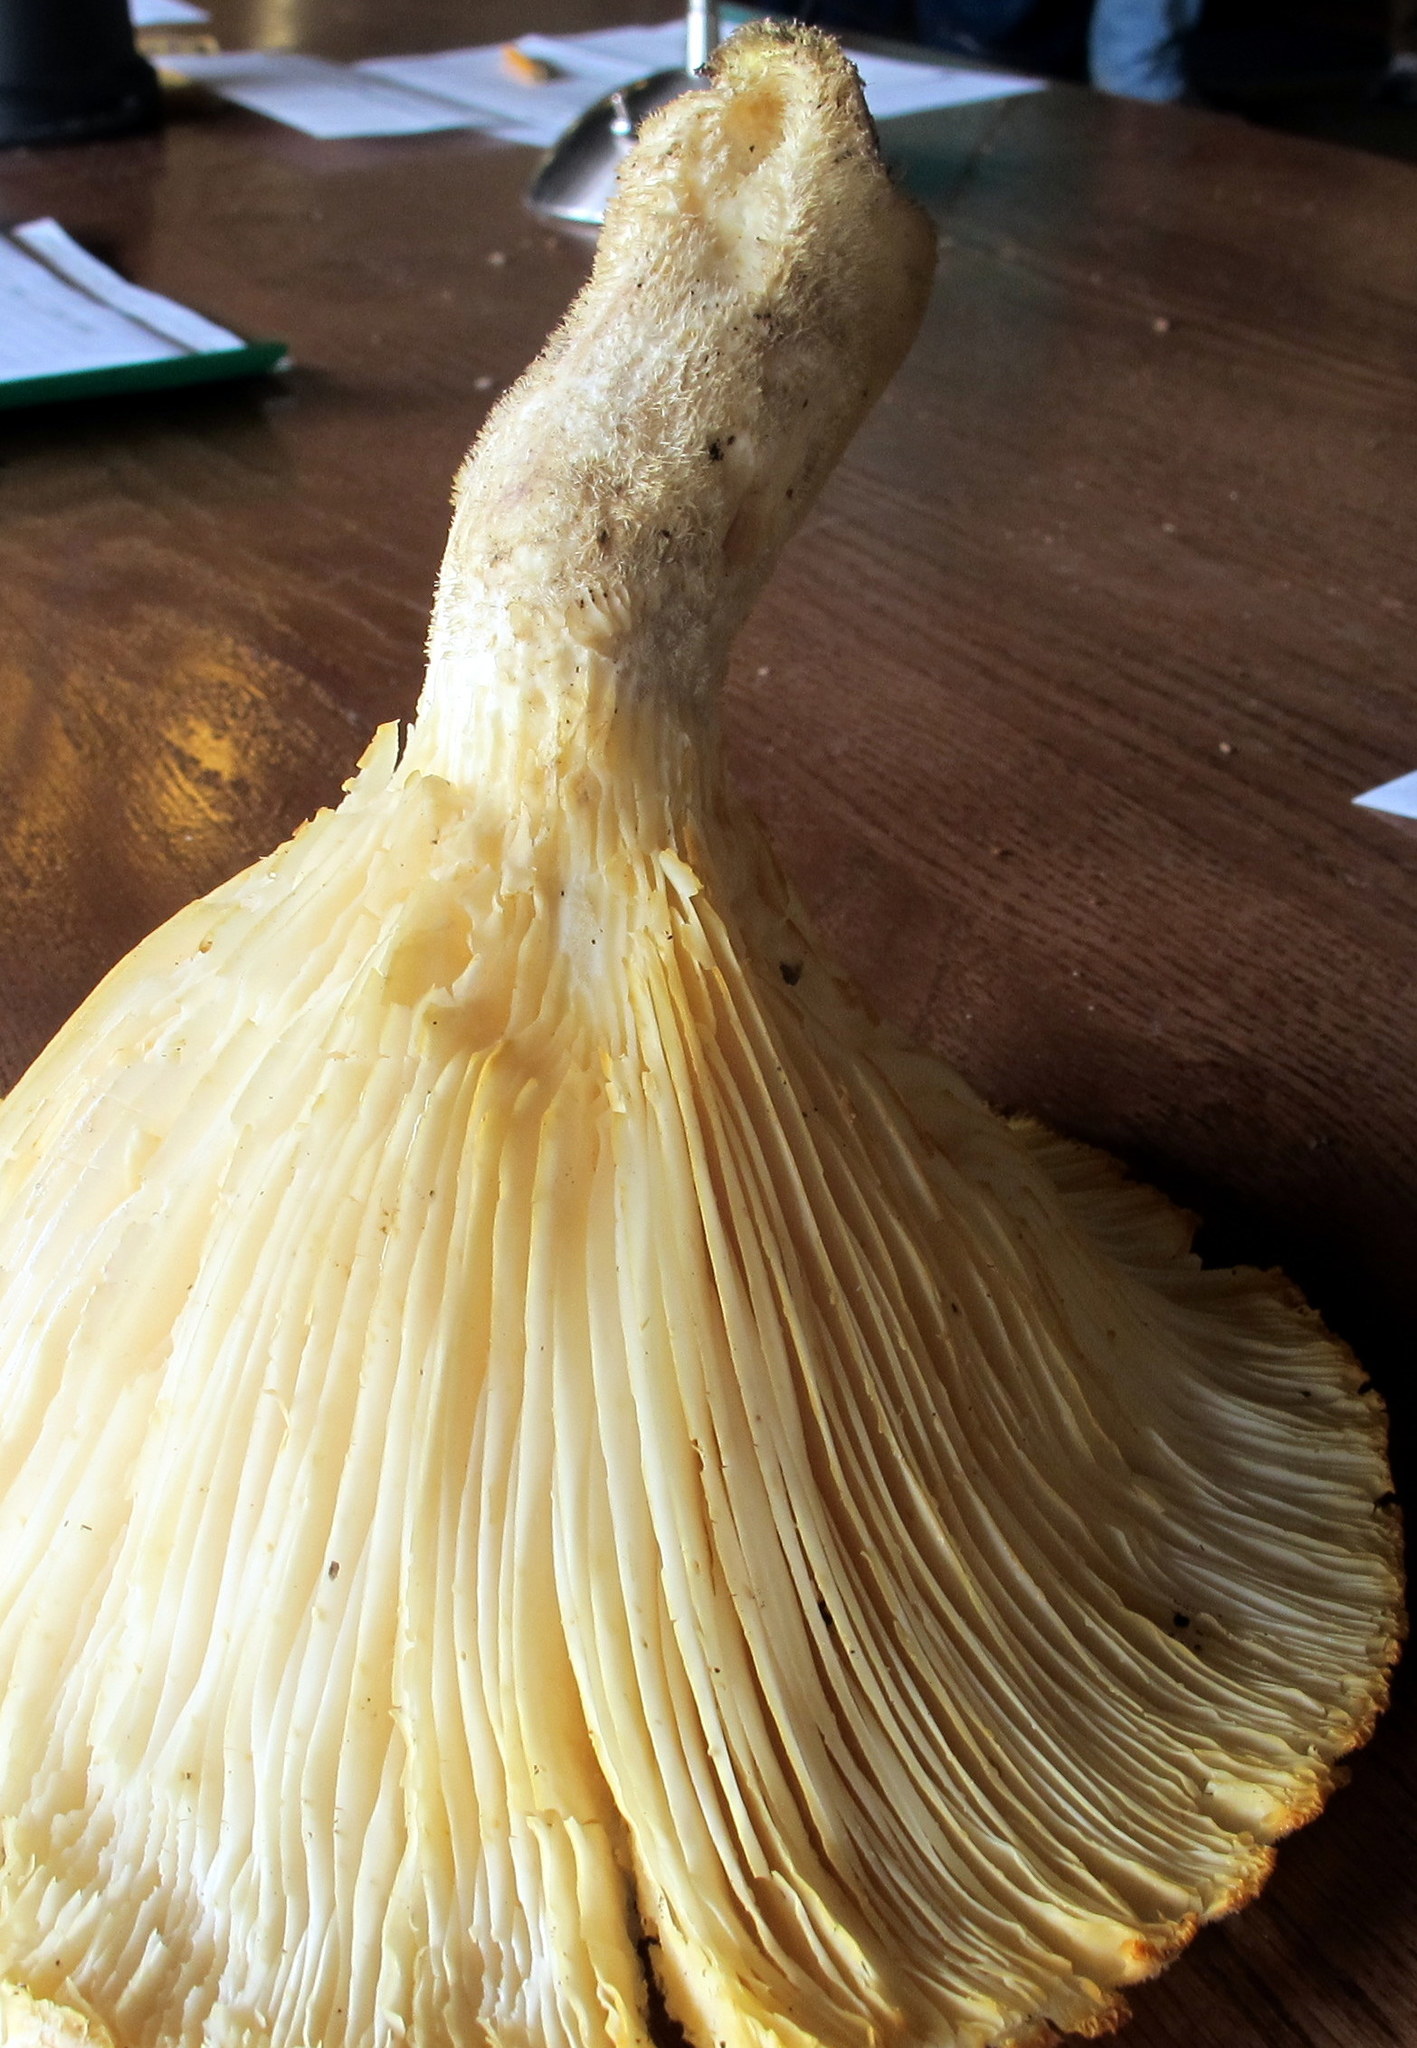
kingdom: Fungi
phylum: Basidiomycota
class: Agaricomycetes
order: Polyporales
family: Polyporaceae
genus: Lentinus
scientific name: Lentinus levis
